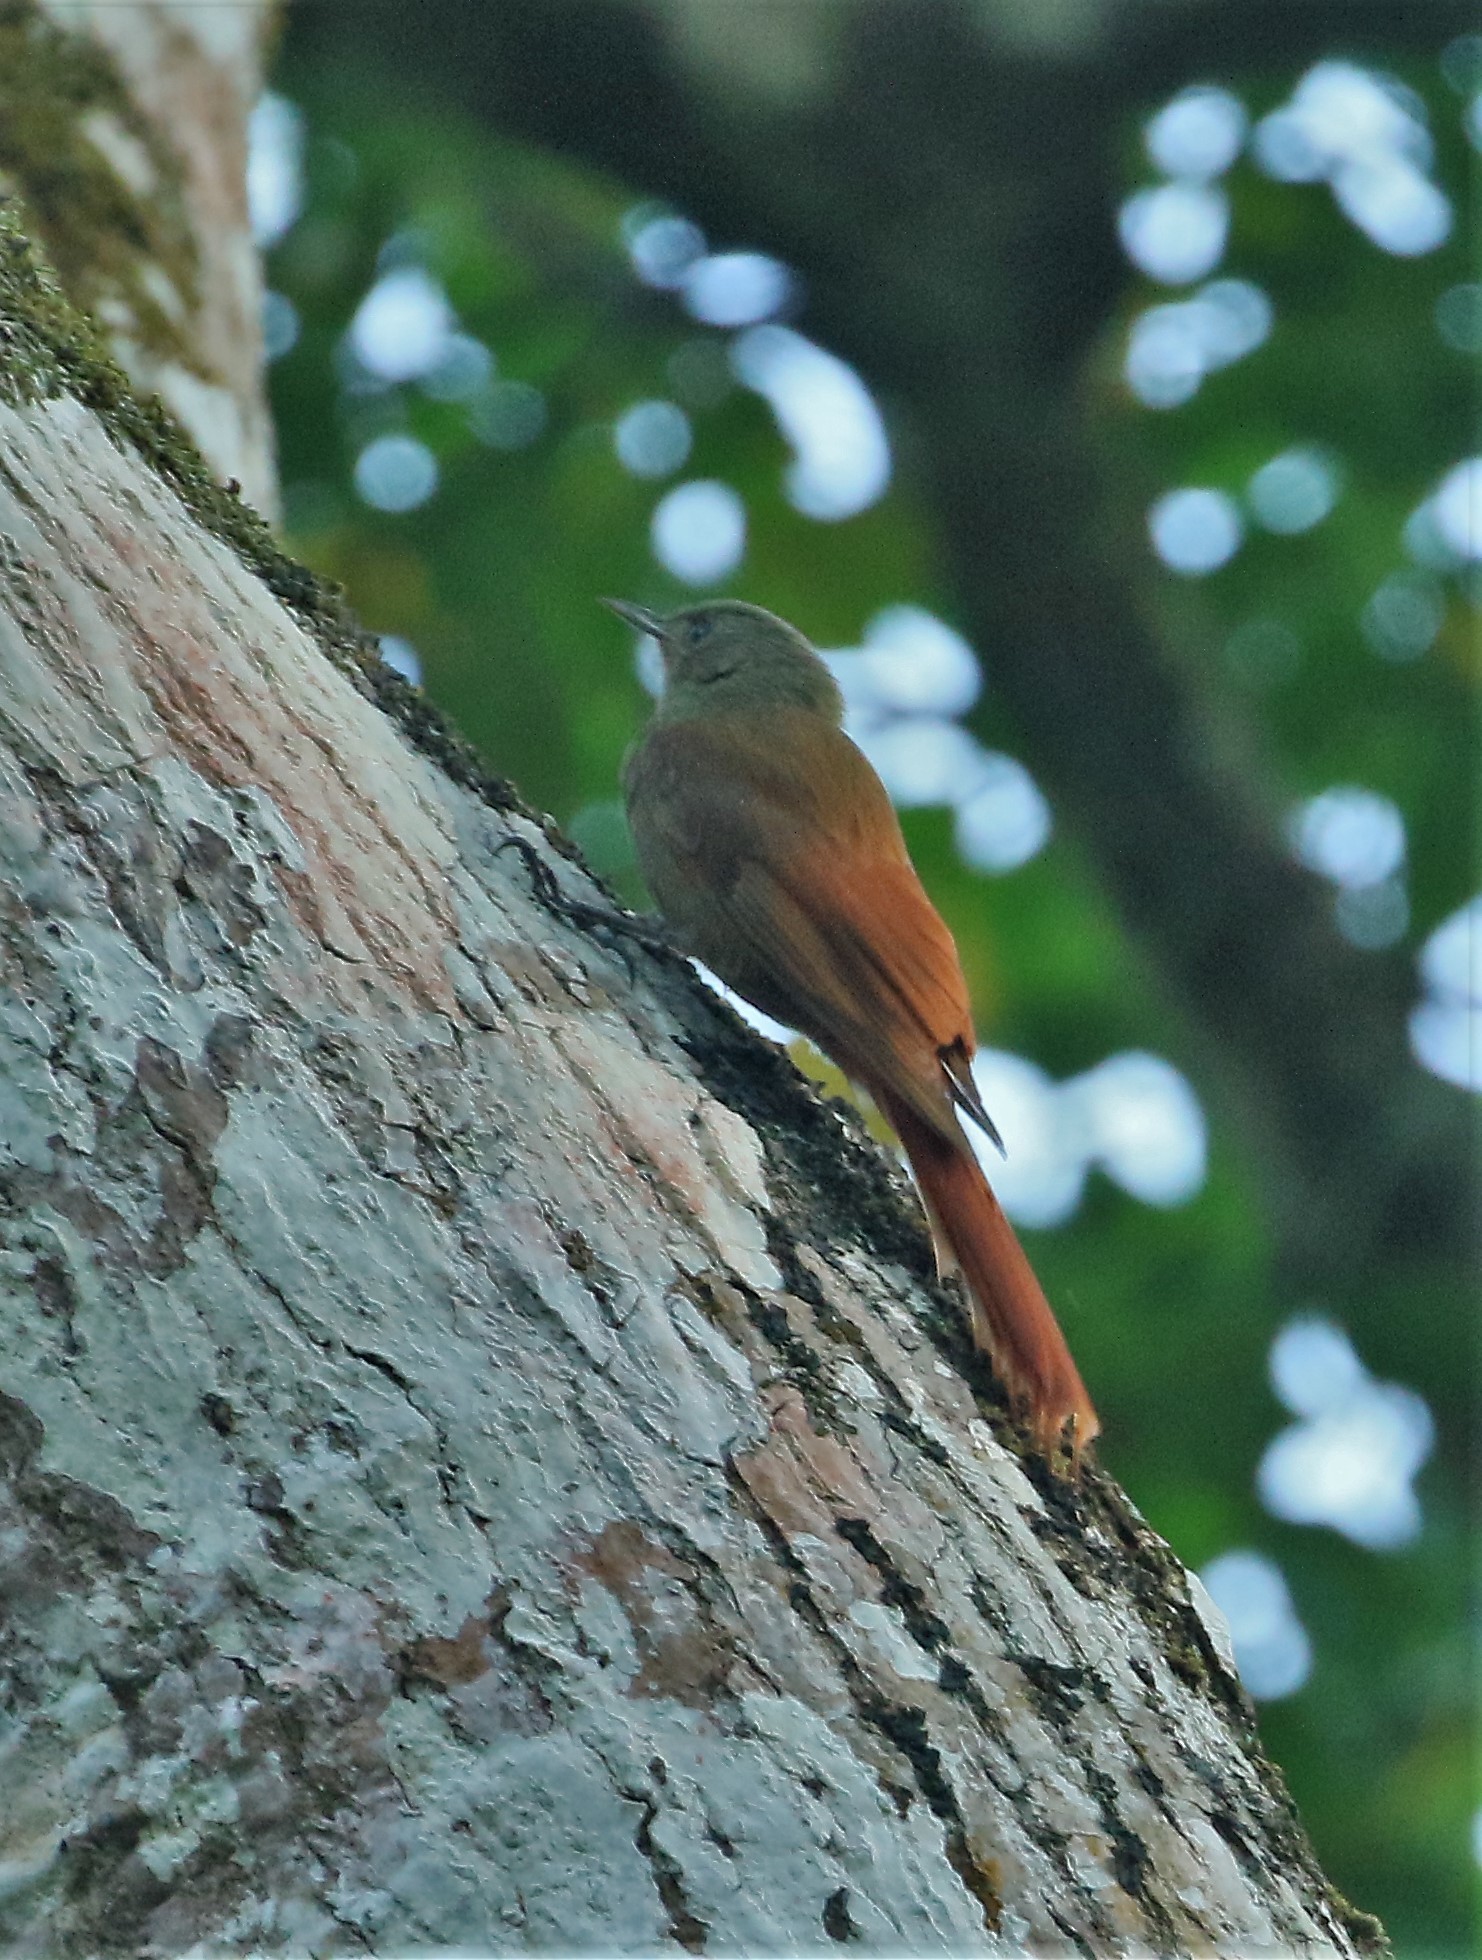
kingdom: Animalia
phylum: Chordata
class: Aves
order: Passeriformes
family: Furnariidae
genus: Sittasomus
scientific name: Sittasomus griseicapillus
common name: Olivaceous woodcreeper
